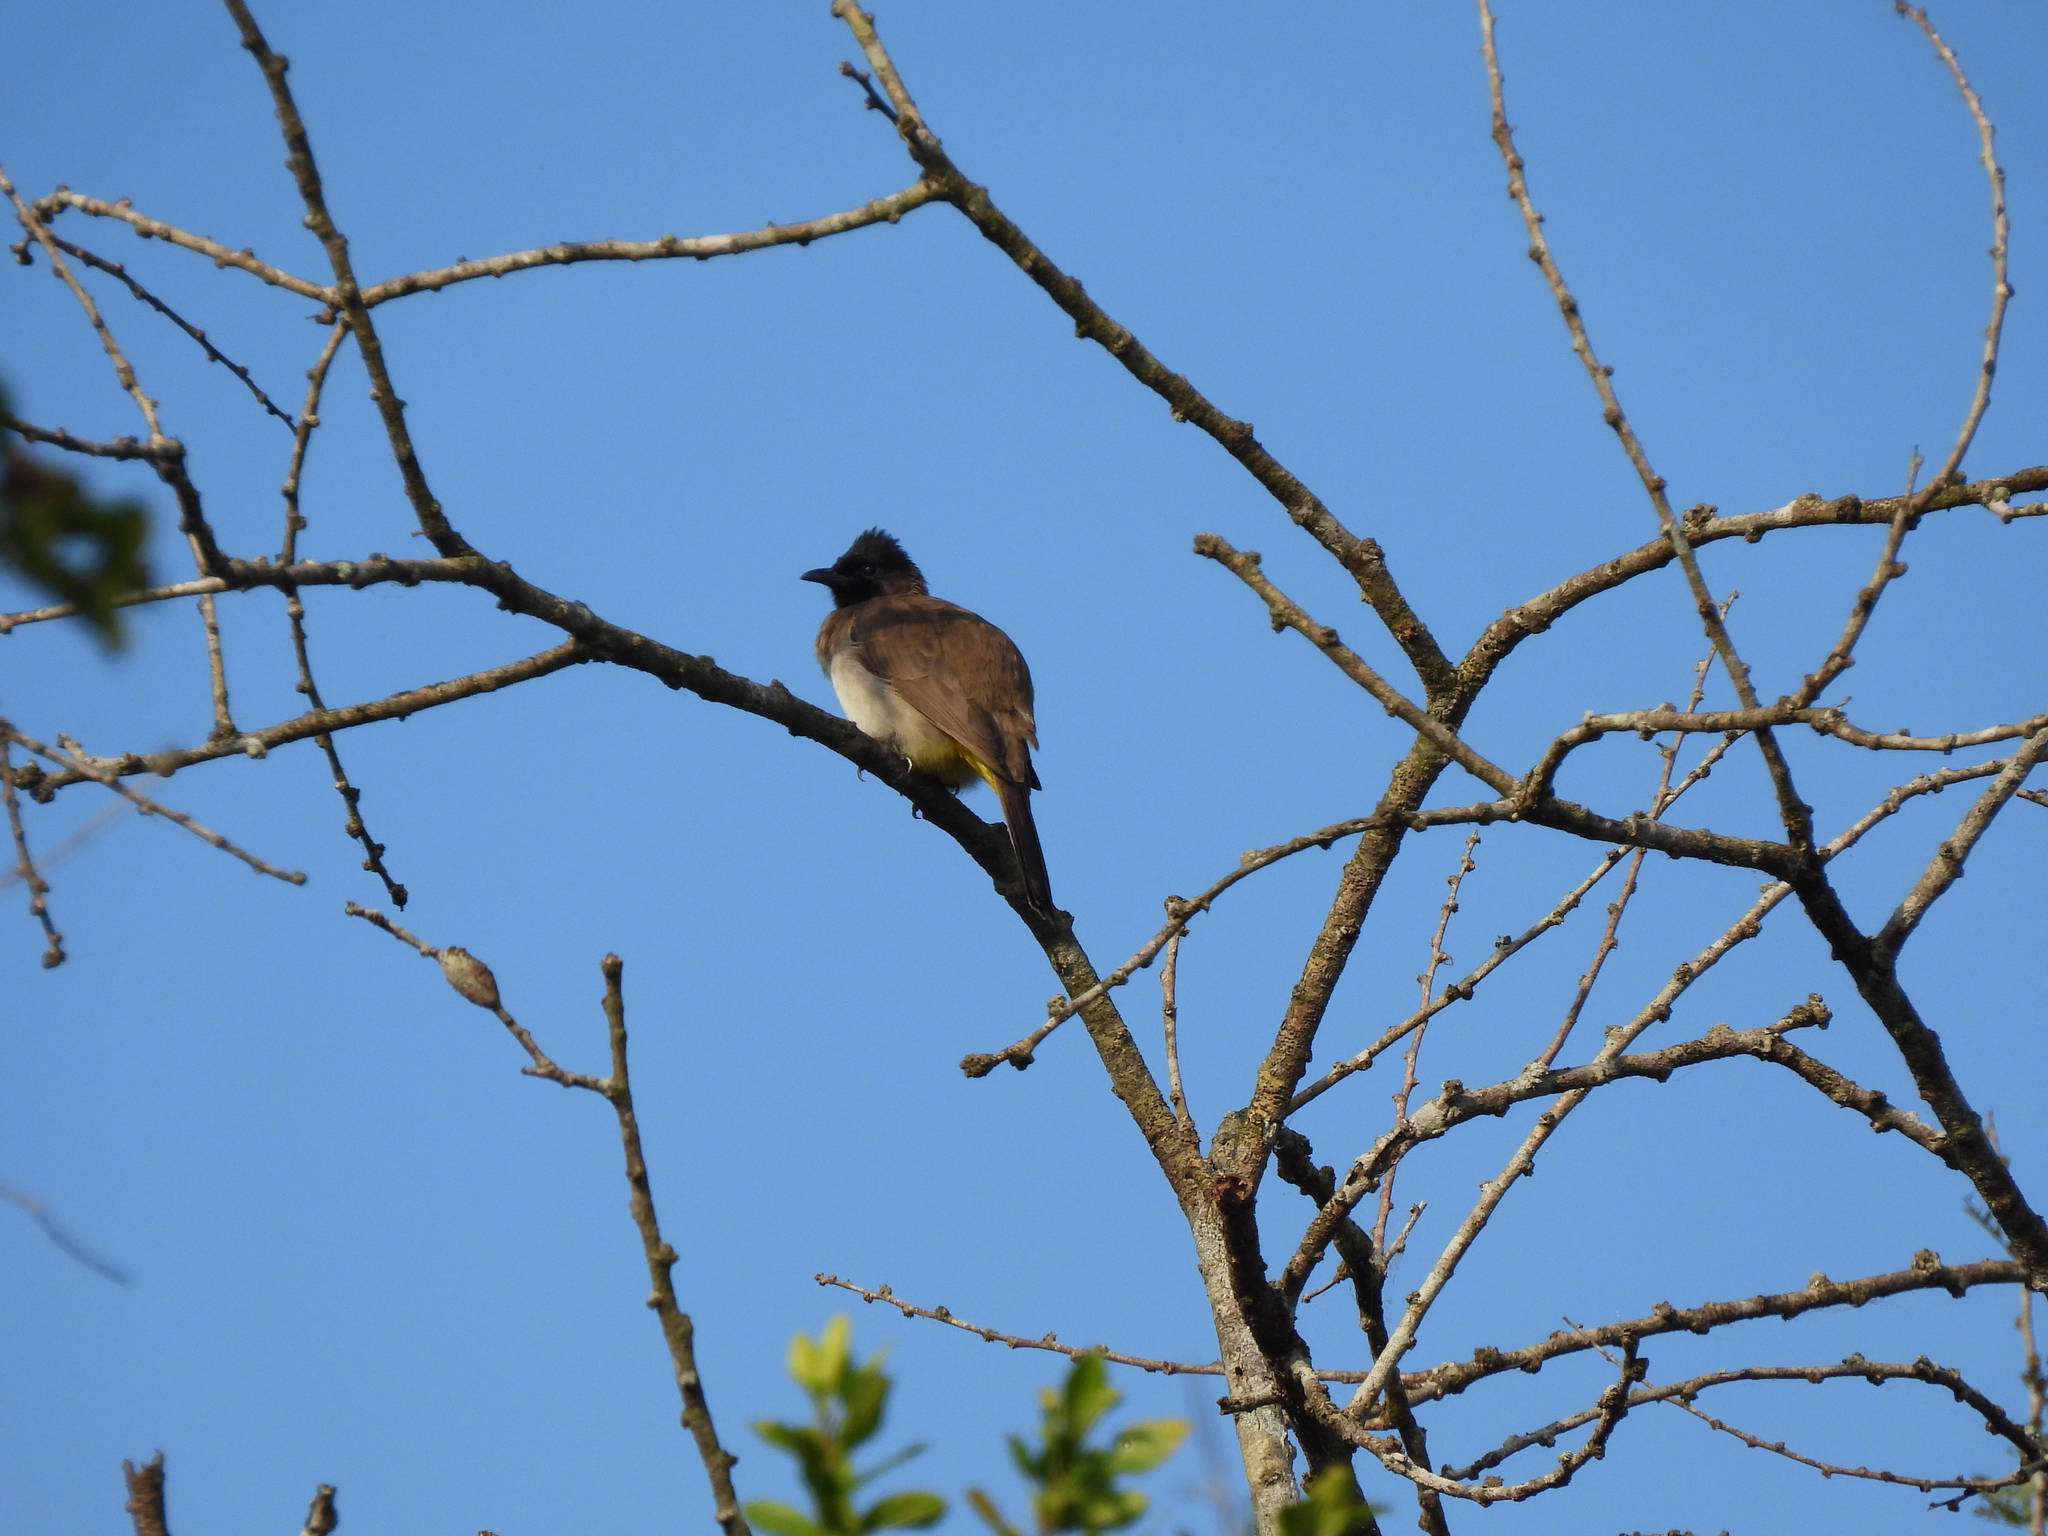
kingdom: Animalia
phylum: Chordata
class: Aves
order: Passeriformes
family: Pycnonotidae
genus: Pycnonotus
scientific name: Pycnonotus barbatus
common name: Common bulbul
